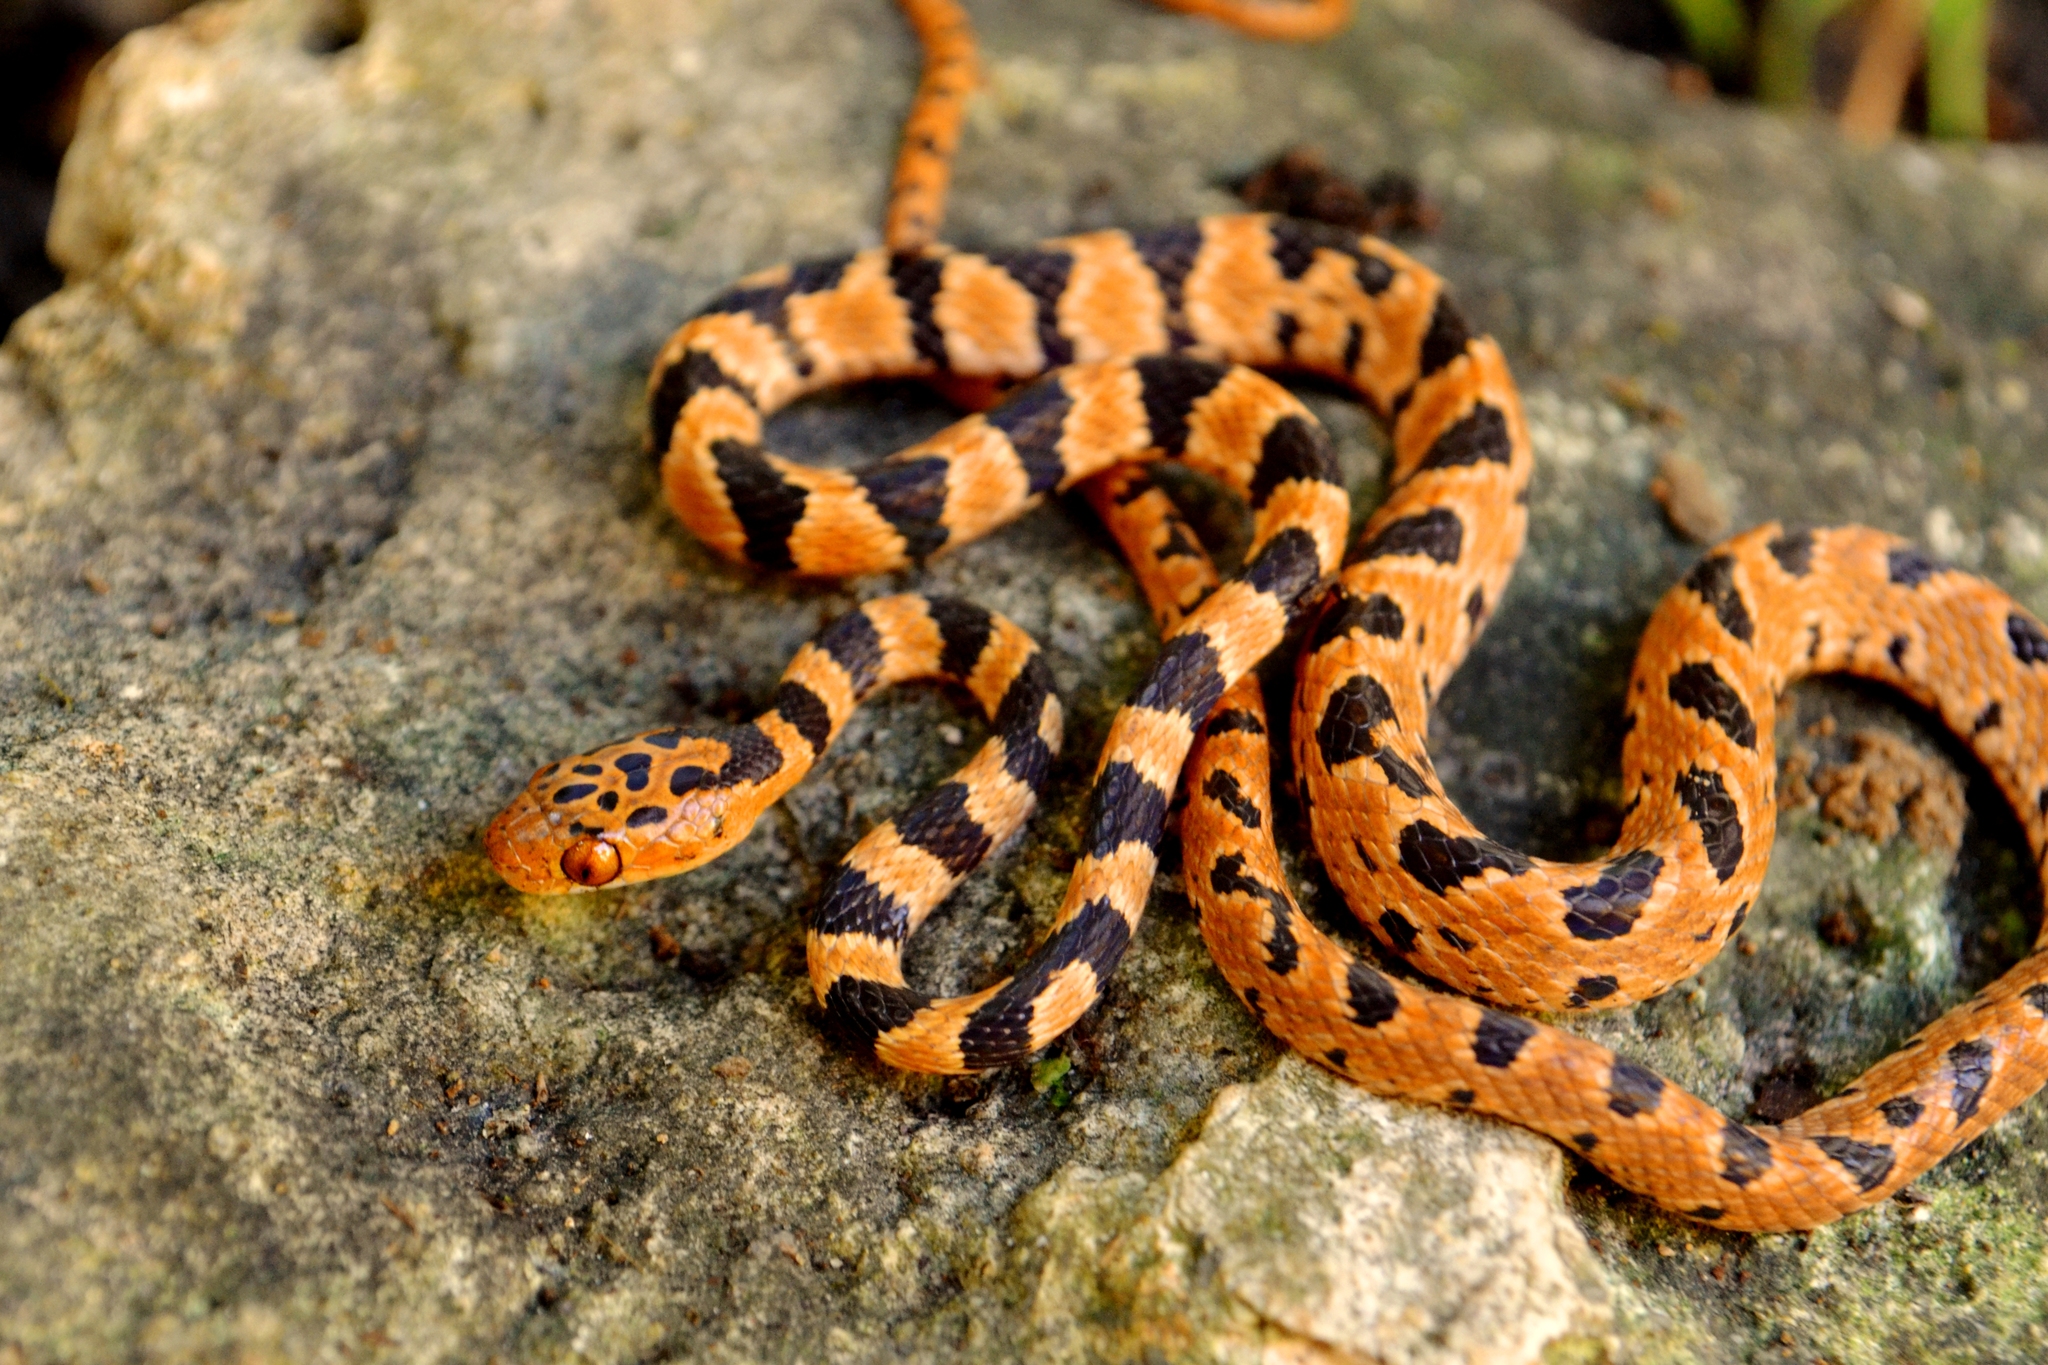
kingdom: Animalia
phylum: Chordata
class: Squamata
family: Colubridae
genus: Imantodes
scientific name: Imantodes gemmistratus
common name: Central american tree snake
